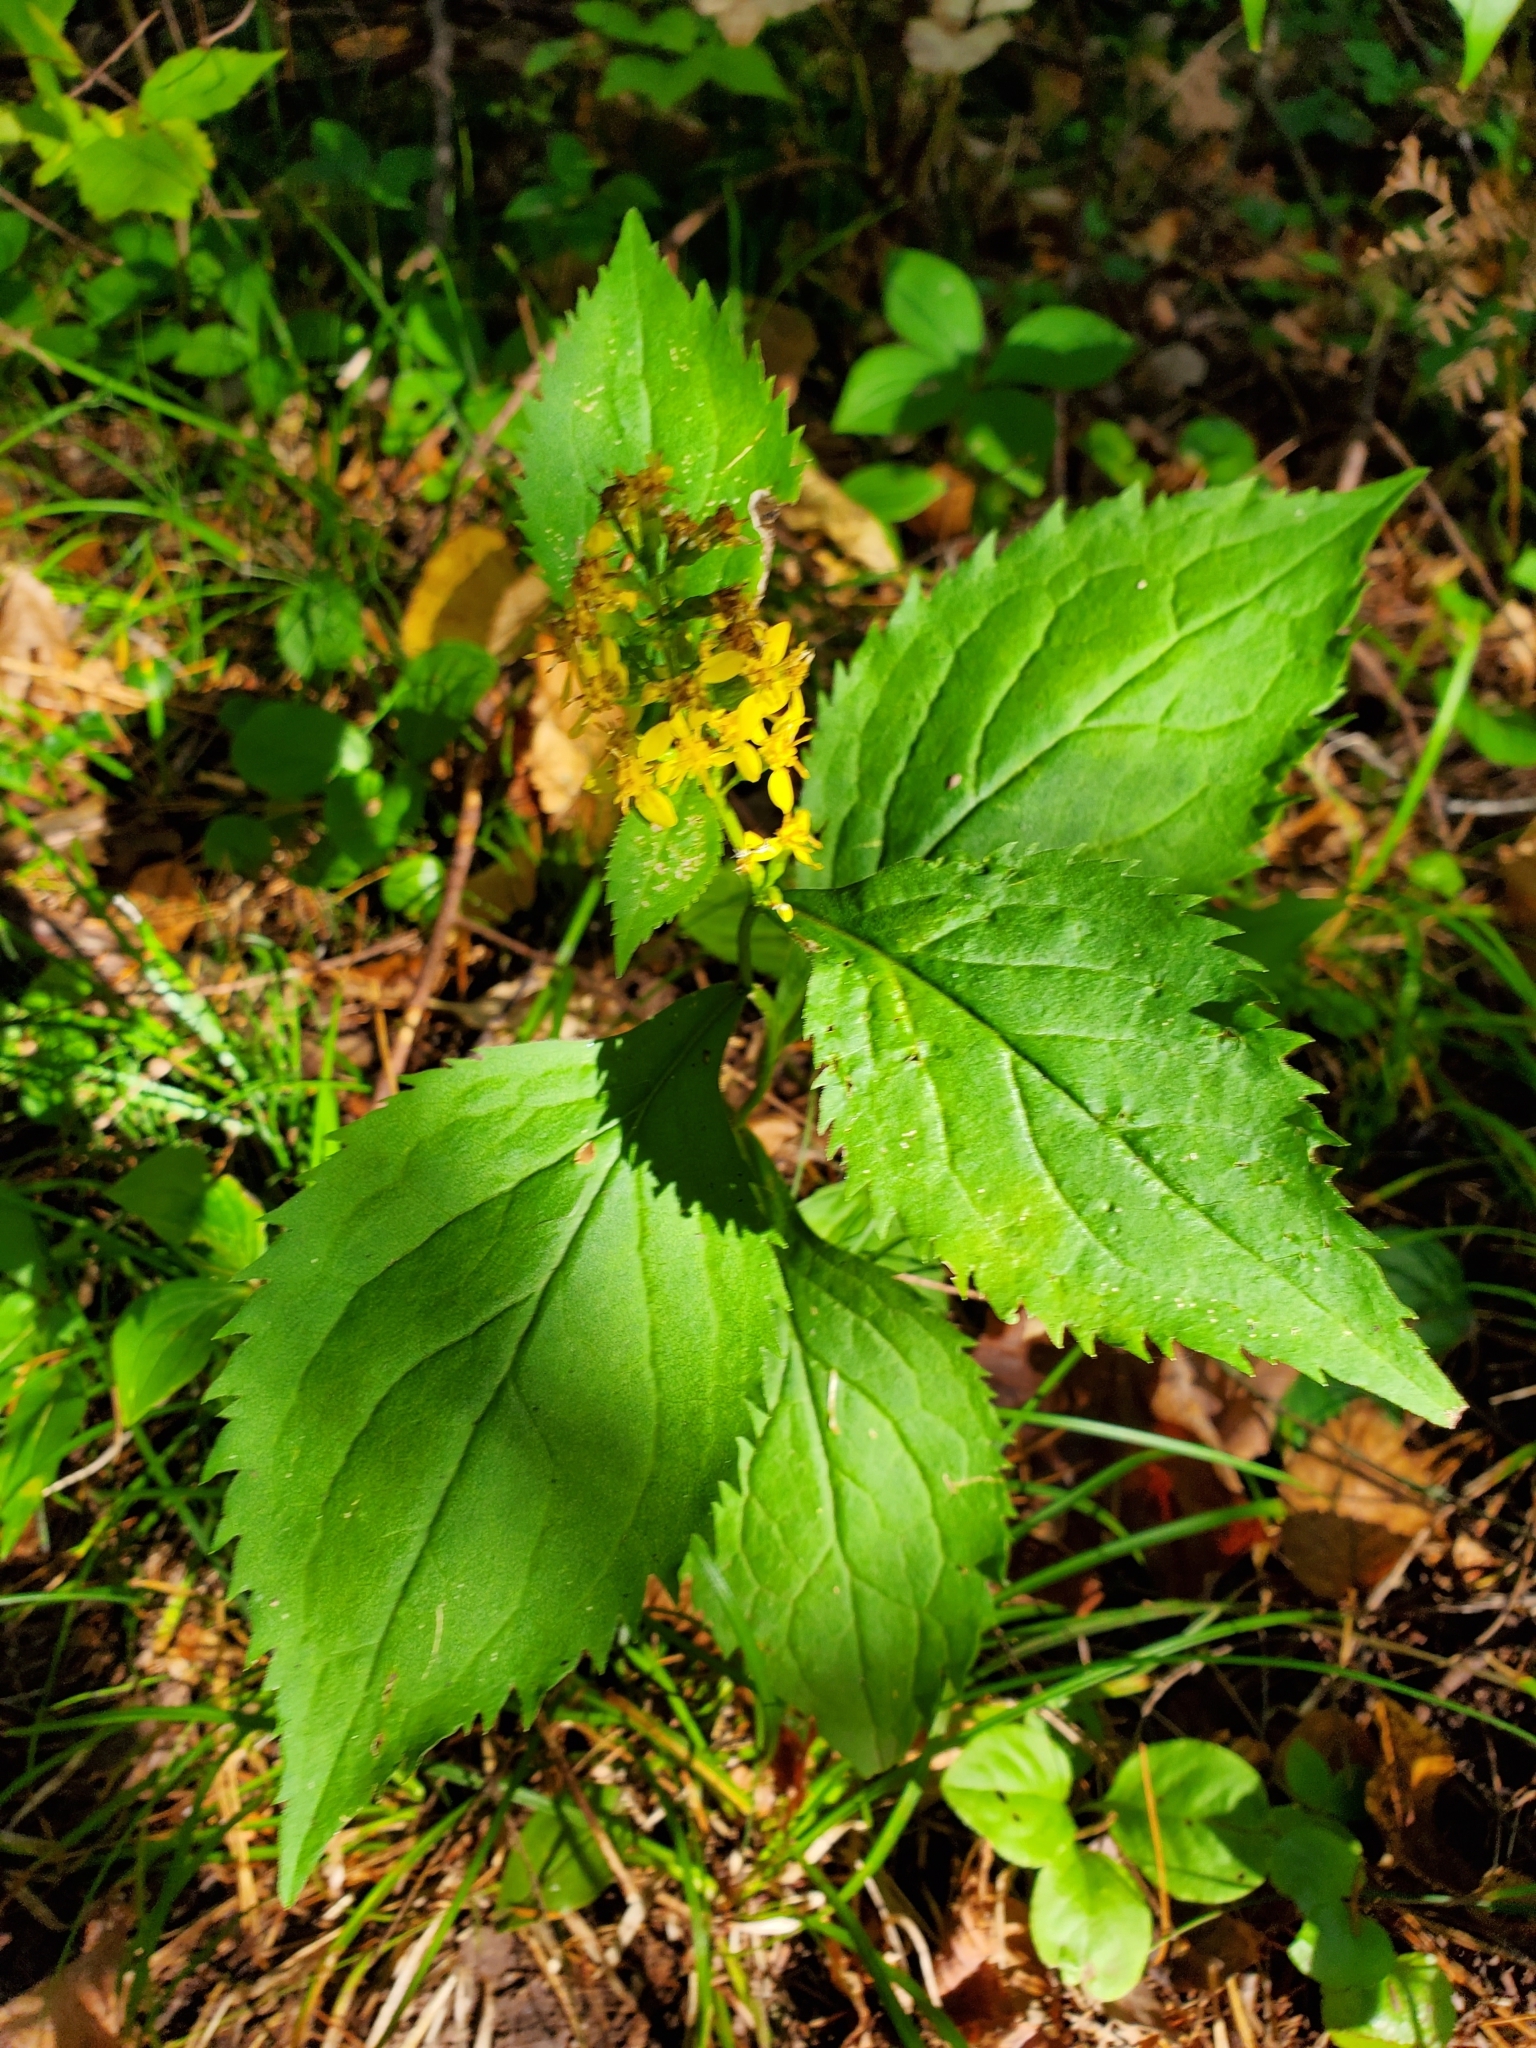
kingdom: Plantae
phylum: Tracheophyta
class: Magnoliopsida
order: Asterales
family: Asteraceae
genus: Solidago
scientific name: Solidago flexicaulis
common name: Zig-zag goldenrod
